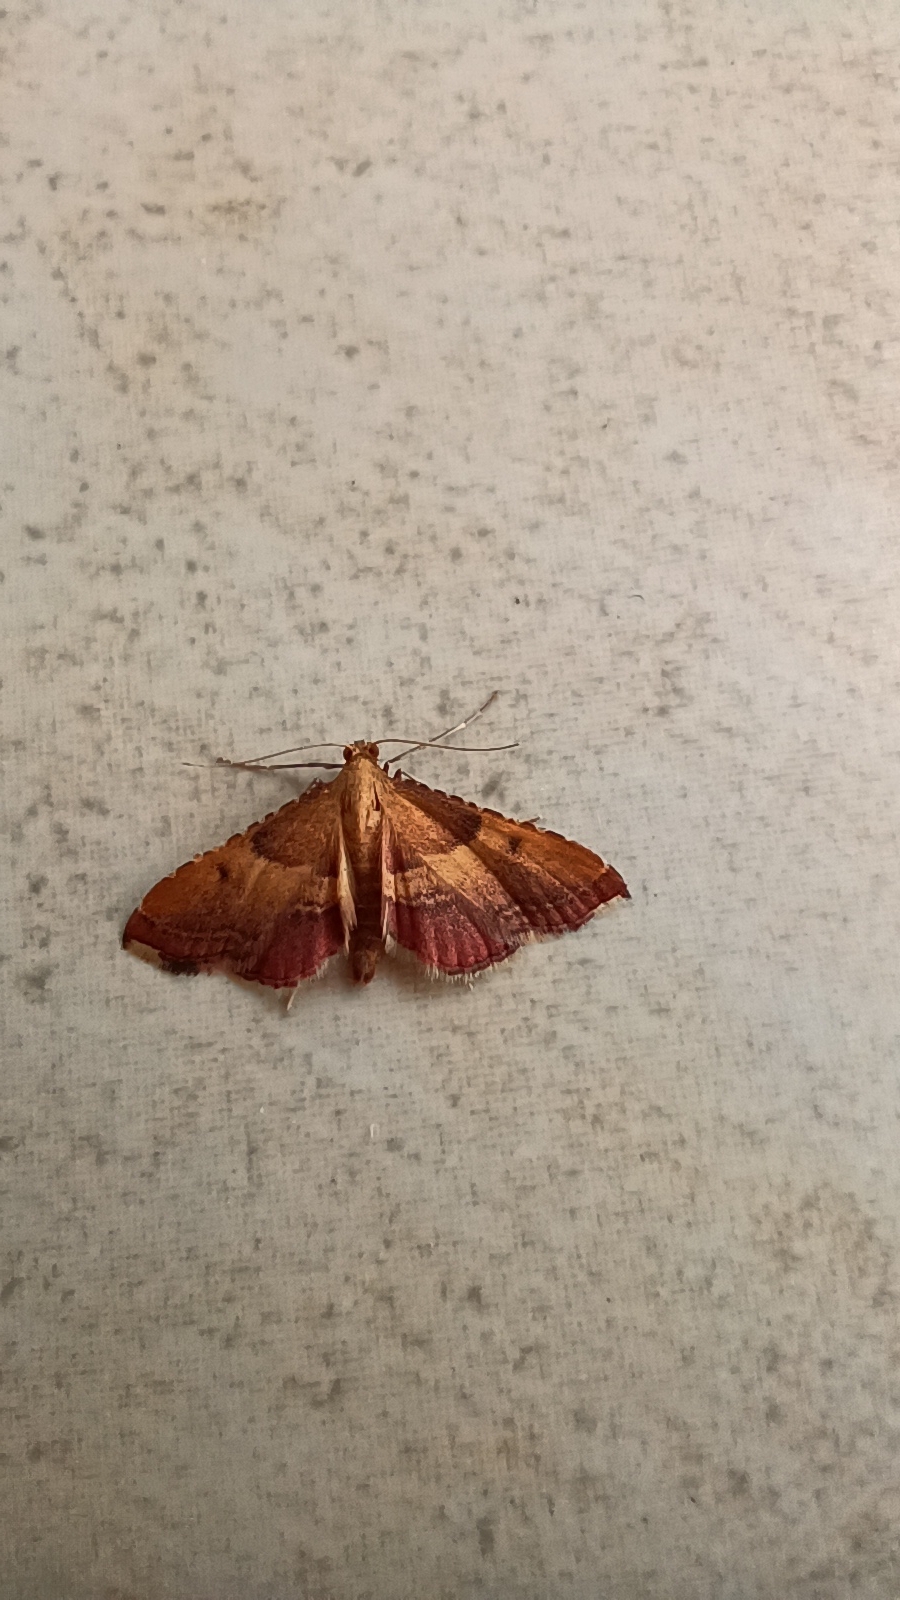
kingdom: Animalia
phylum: Arthropoda
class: Insecta
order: Lepidoptera
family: Pyralidae
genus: Endotricha
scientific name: Endotricha flammealis
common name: Rosy tabby
